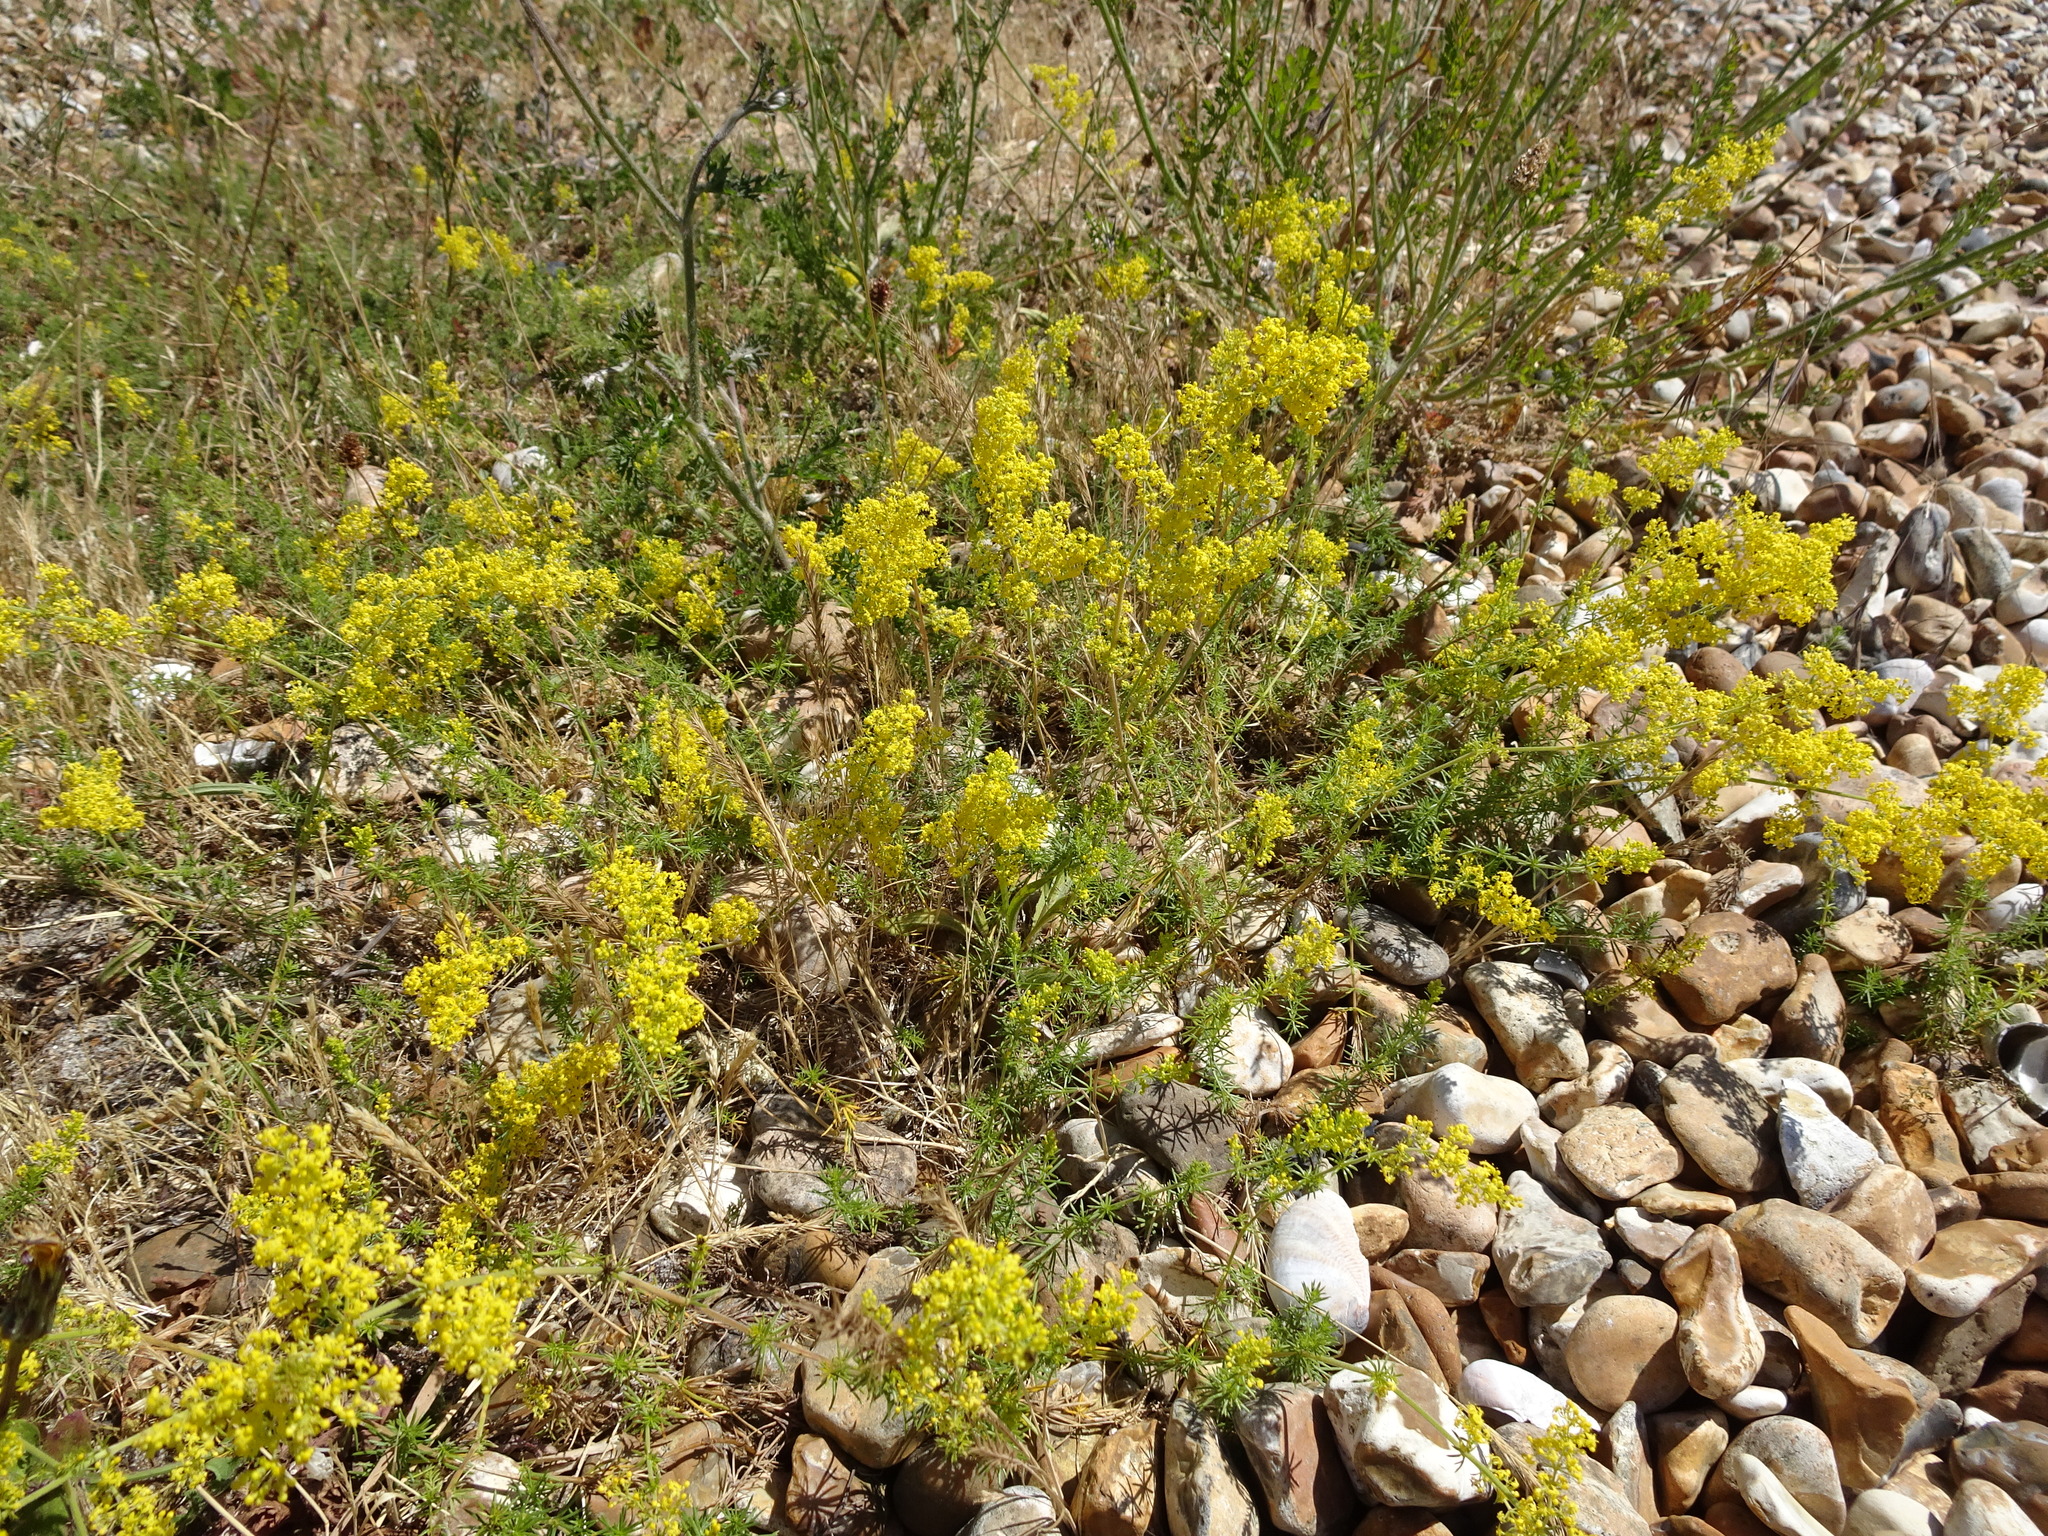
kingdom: Plantae
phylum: Tracheophyta
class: Magnoliopsida
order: Gentianales
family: Rubiaceae
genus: Galium
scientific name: Galium verum
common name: Lady's bedstraw
